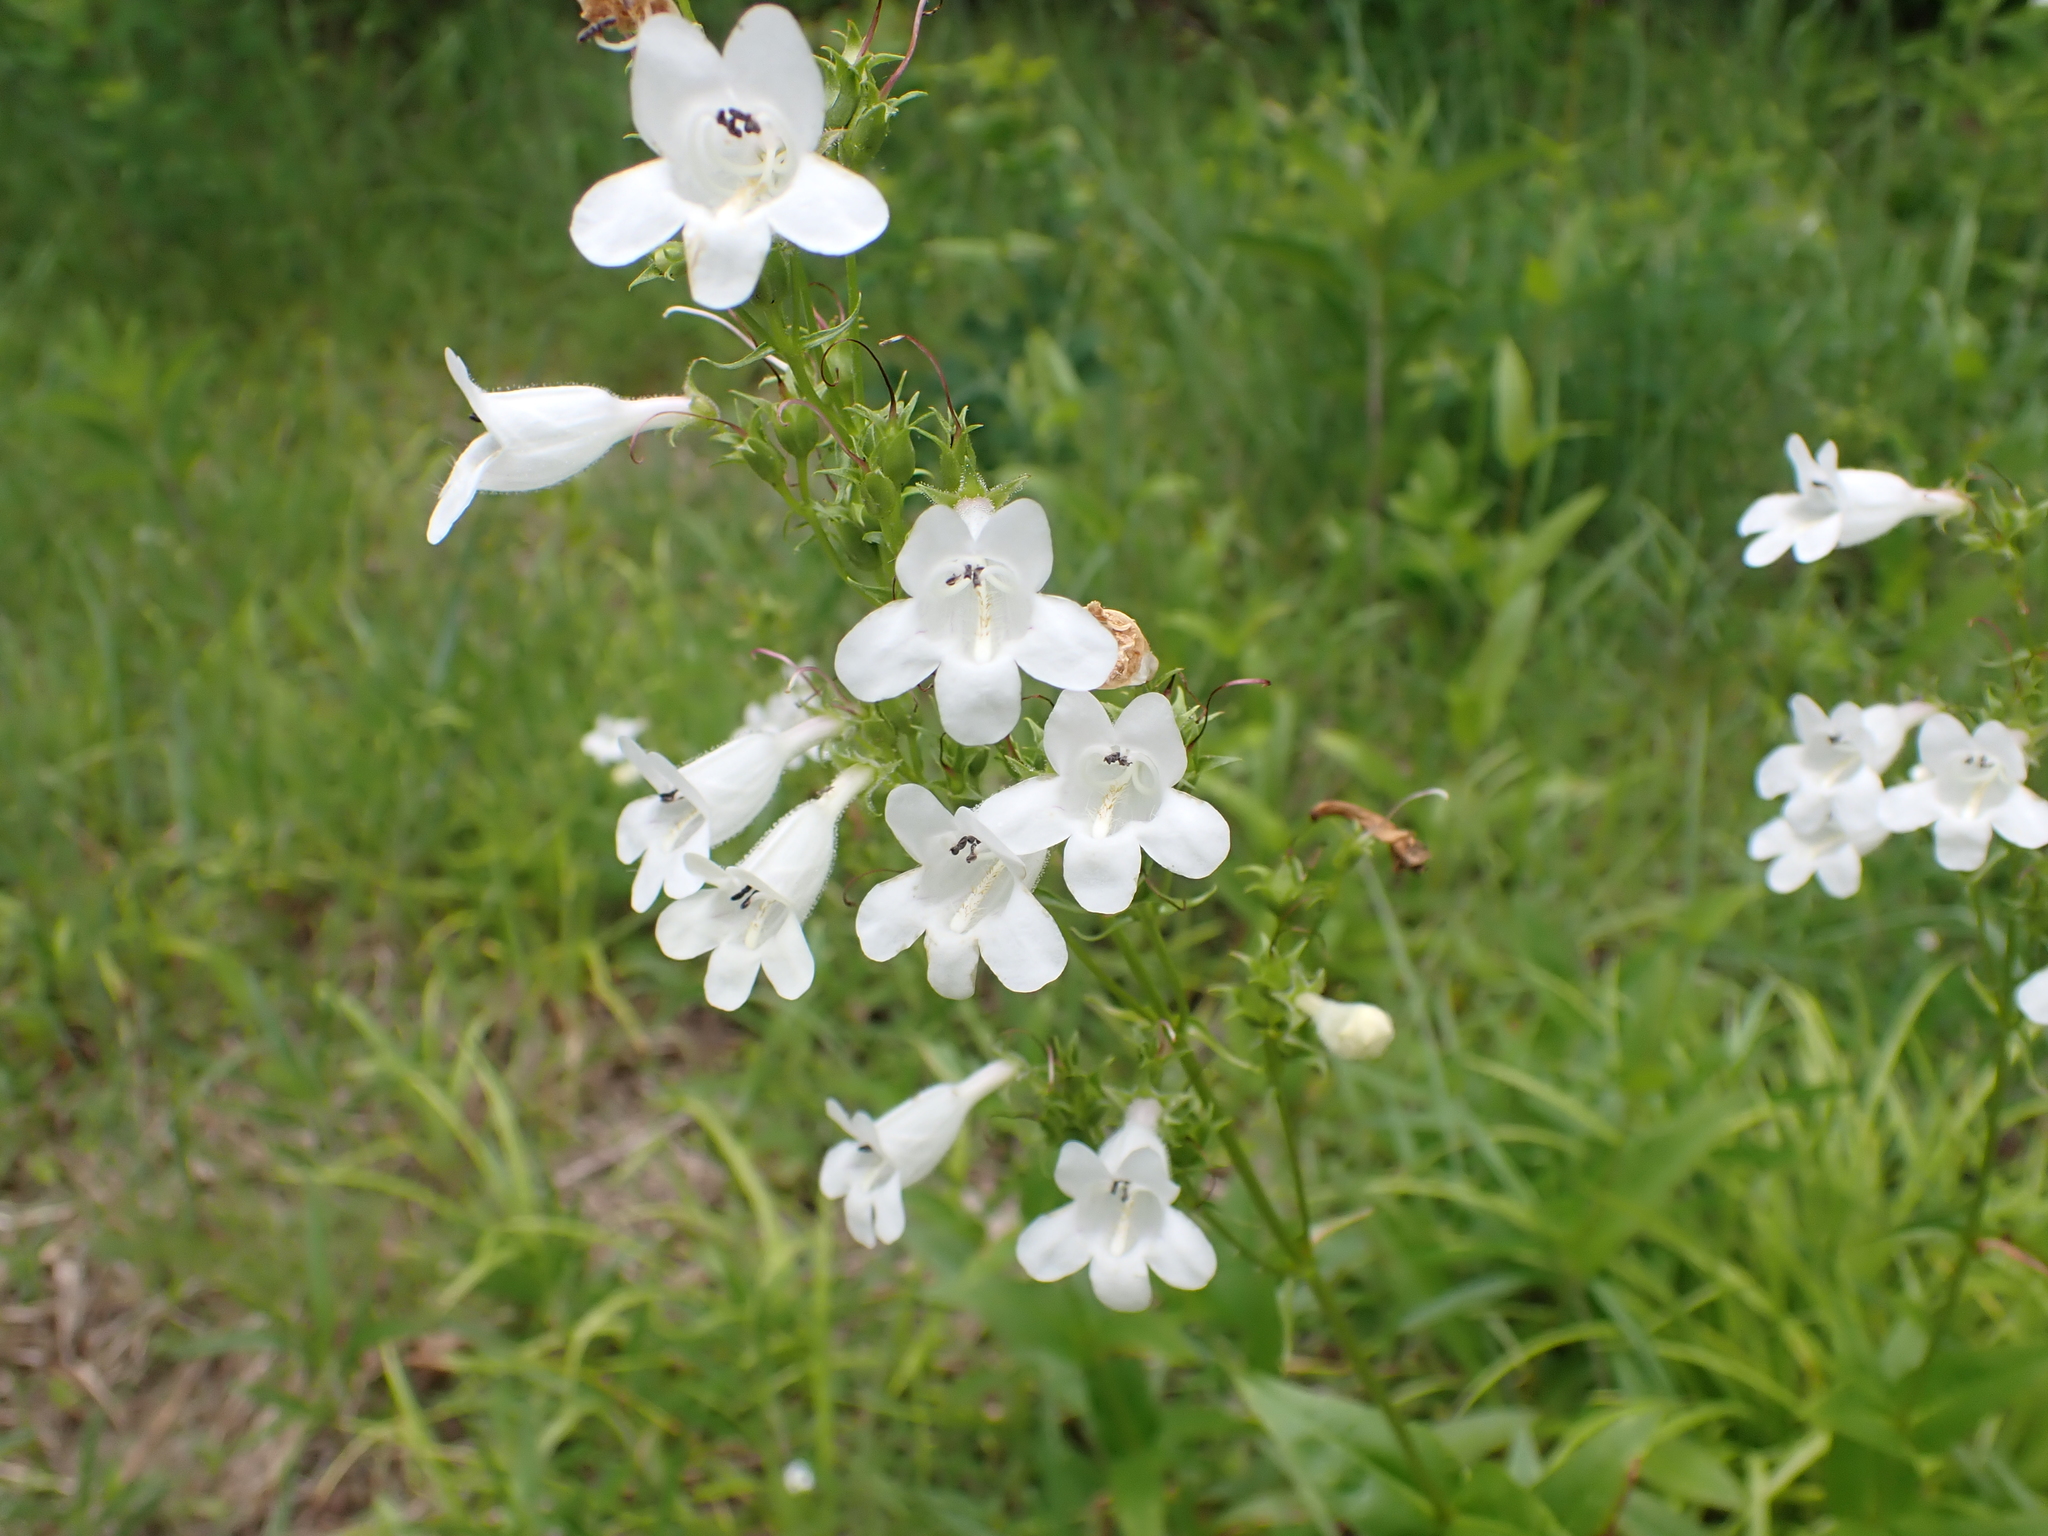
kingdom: Plantae
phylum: Tracheophyta
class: Magnoliopsida
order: Lamiales
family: Plantaginaceae
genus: Penstemon
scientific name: Penstemon digitalis
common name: Foxglove beardtongue
